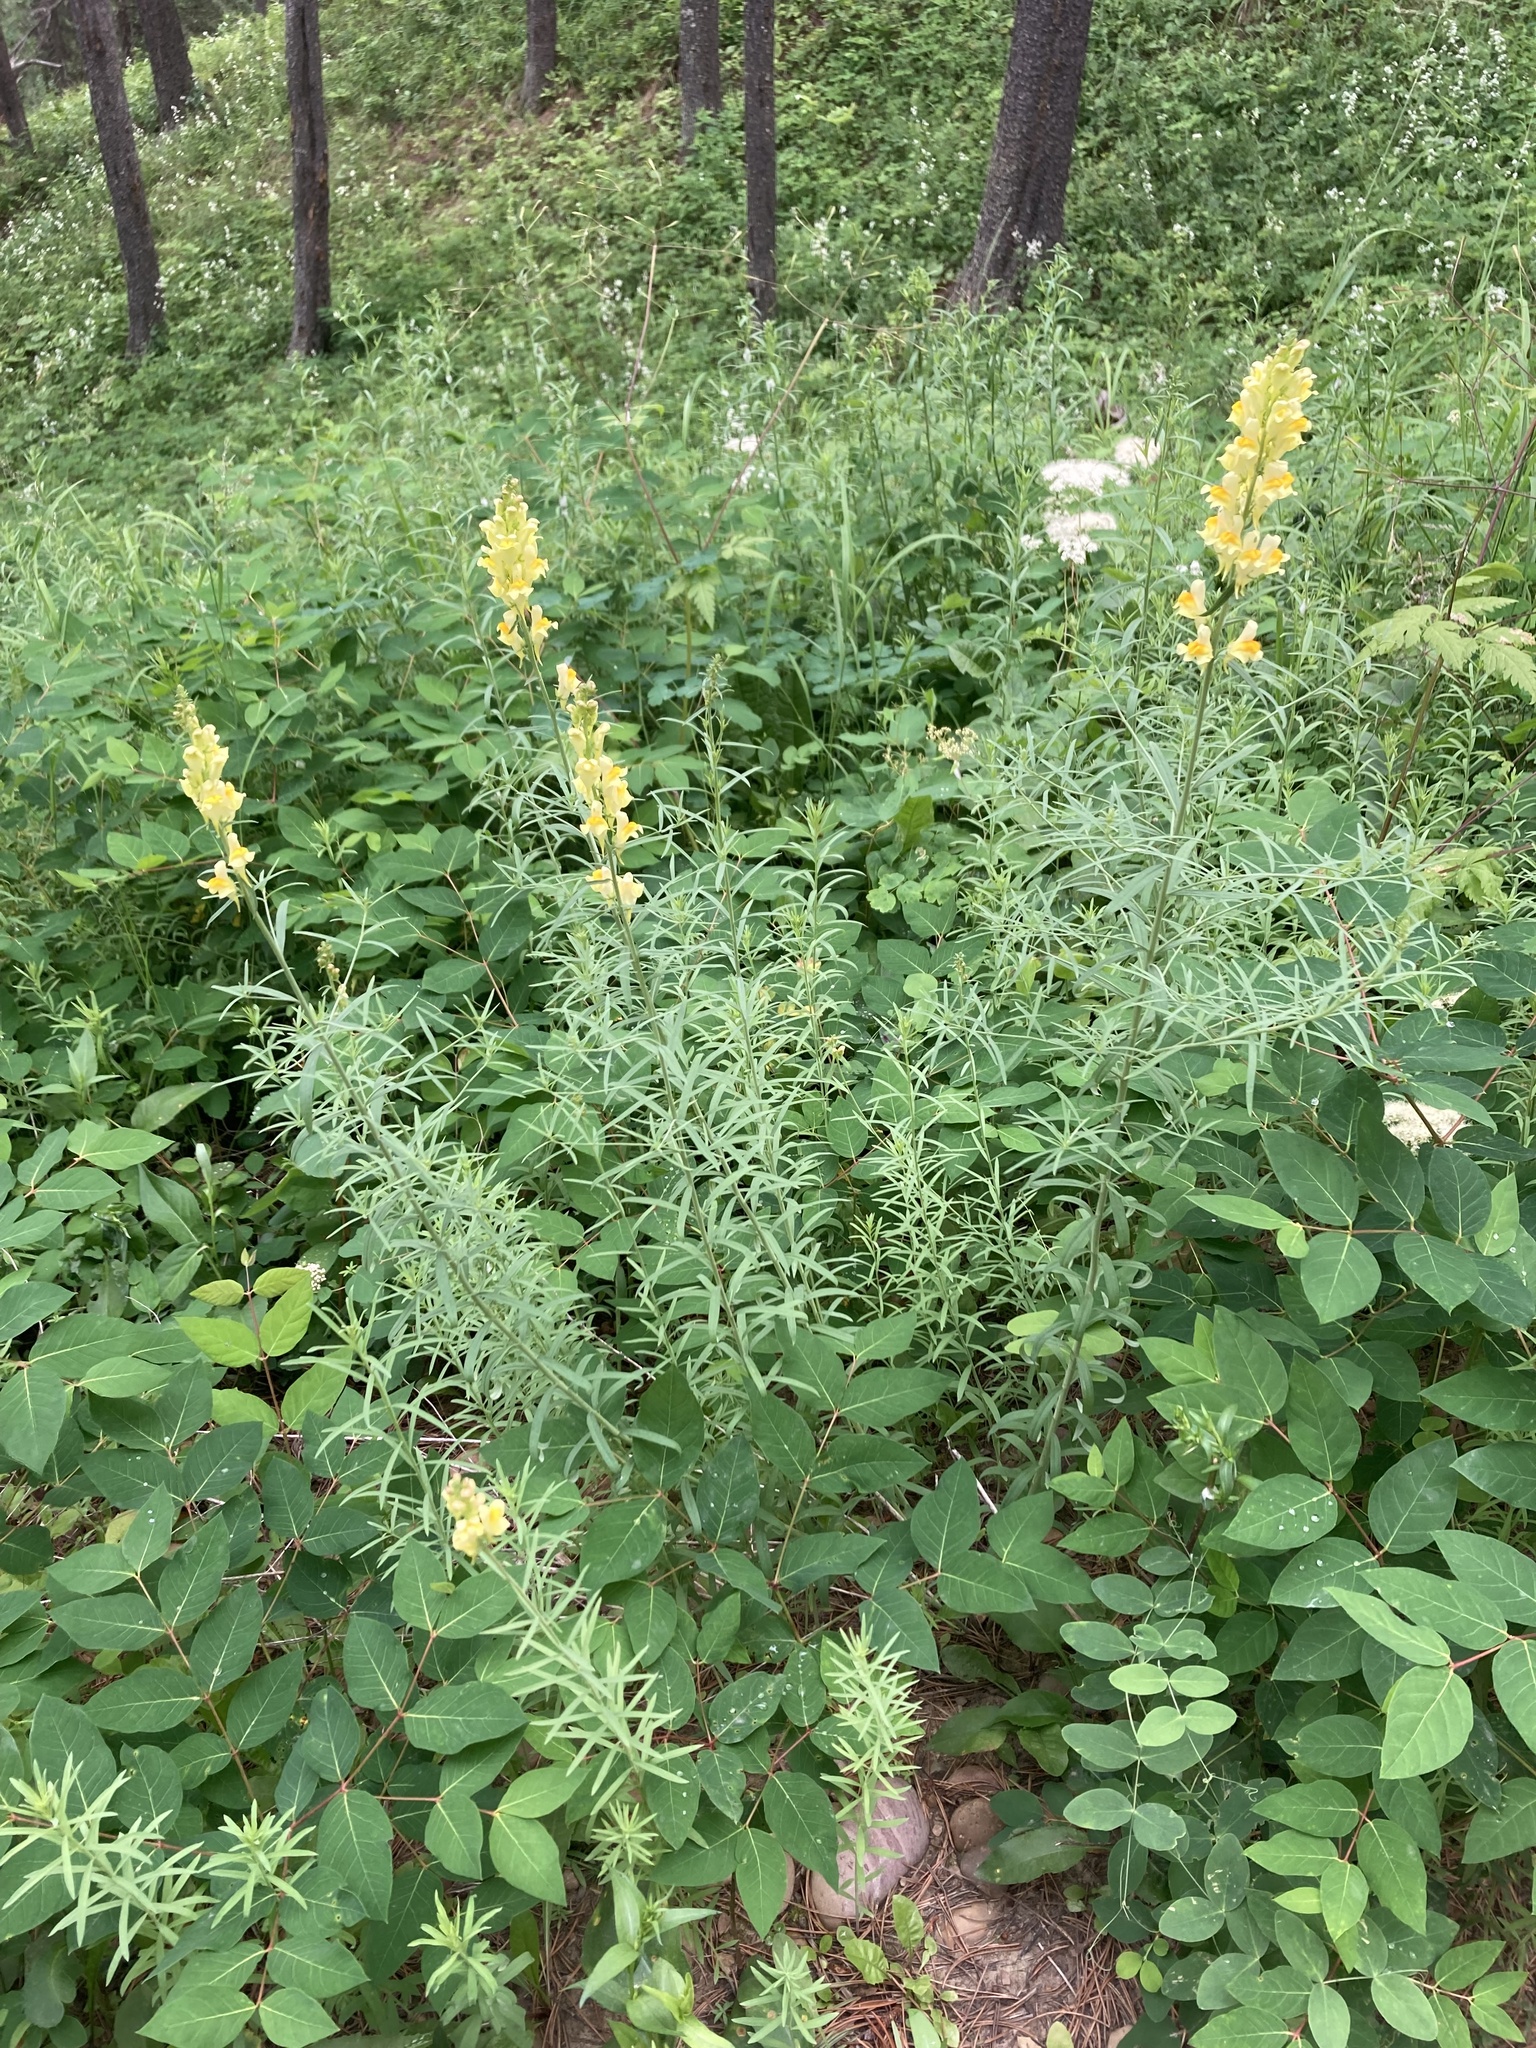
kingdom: Plantae
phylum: Tracheophyta
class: Magnoliopsida
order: Lamiales
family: Plantaginaceae
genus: Linaria
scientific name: Linaria vulgaris
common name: Butter and eggs
